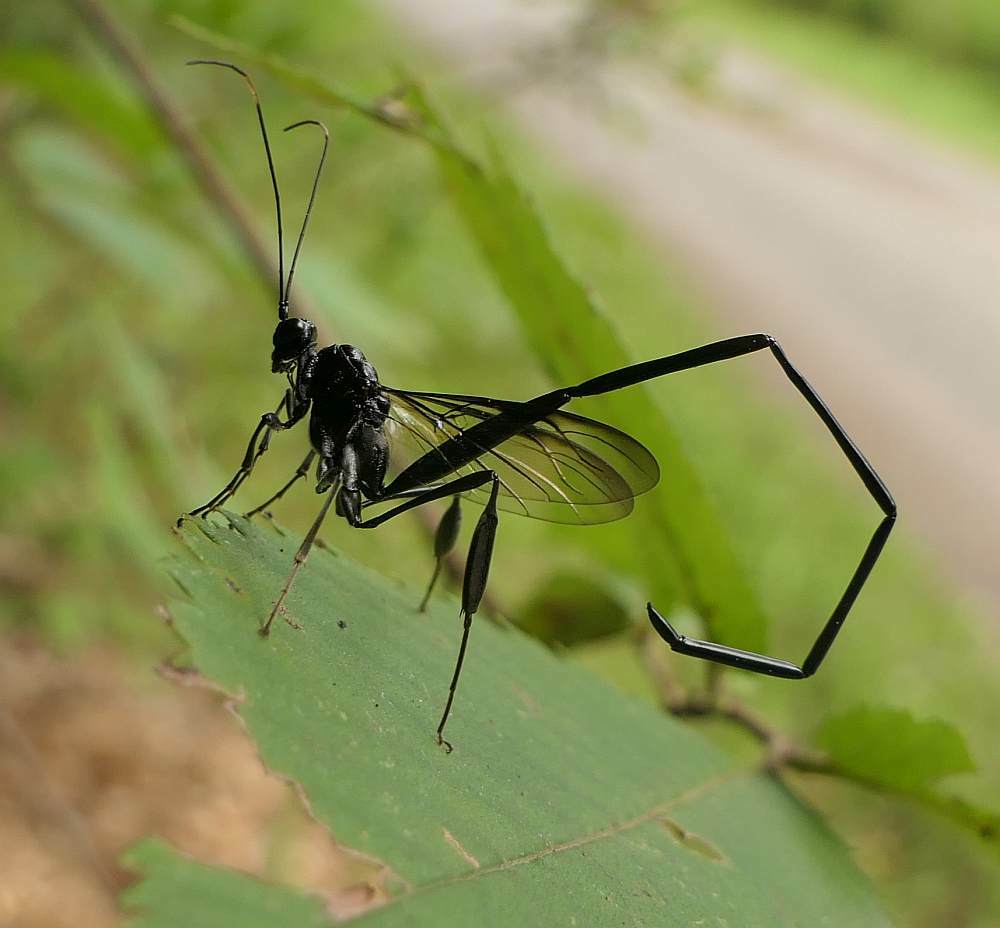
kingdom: Animalia
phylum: Arthropoda
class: Insecta
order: Hymenoptera
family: Pelecinidae
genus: Pelecinus
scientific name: Pelecinus polyturator
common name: American pelecinid wasp
